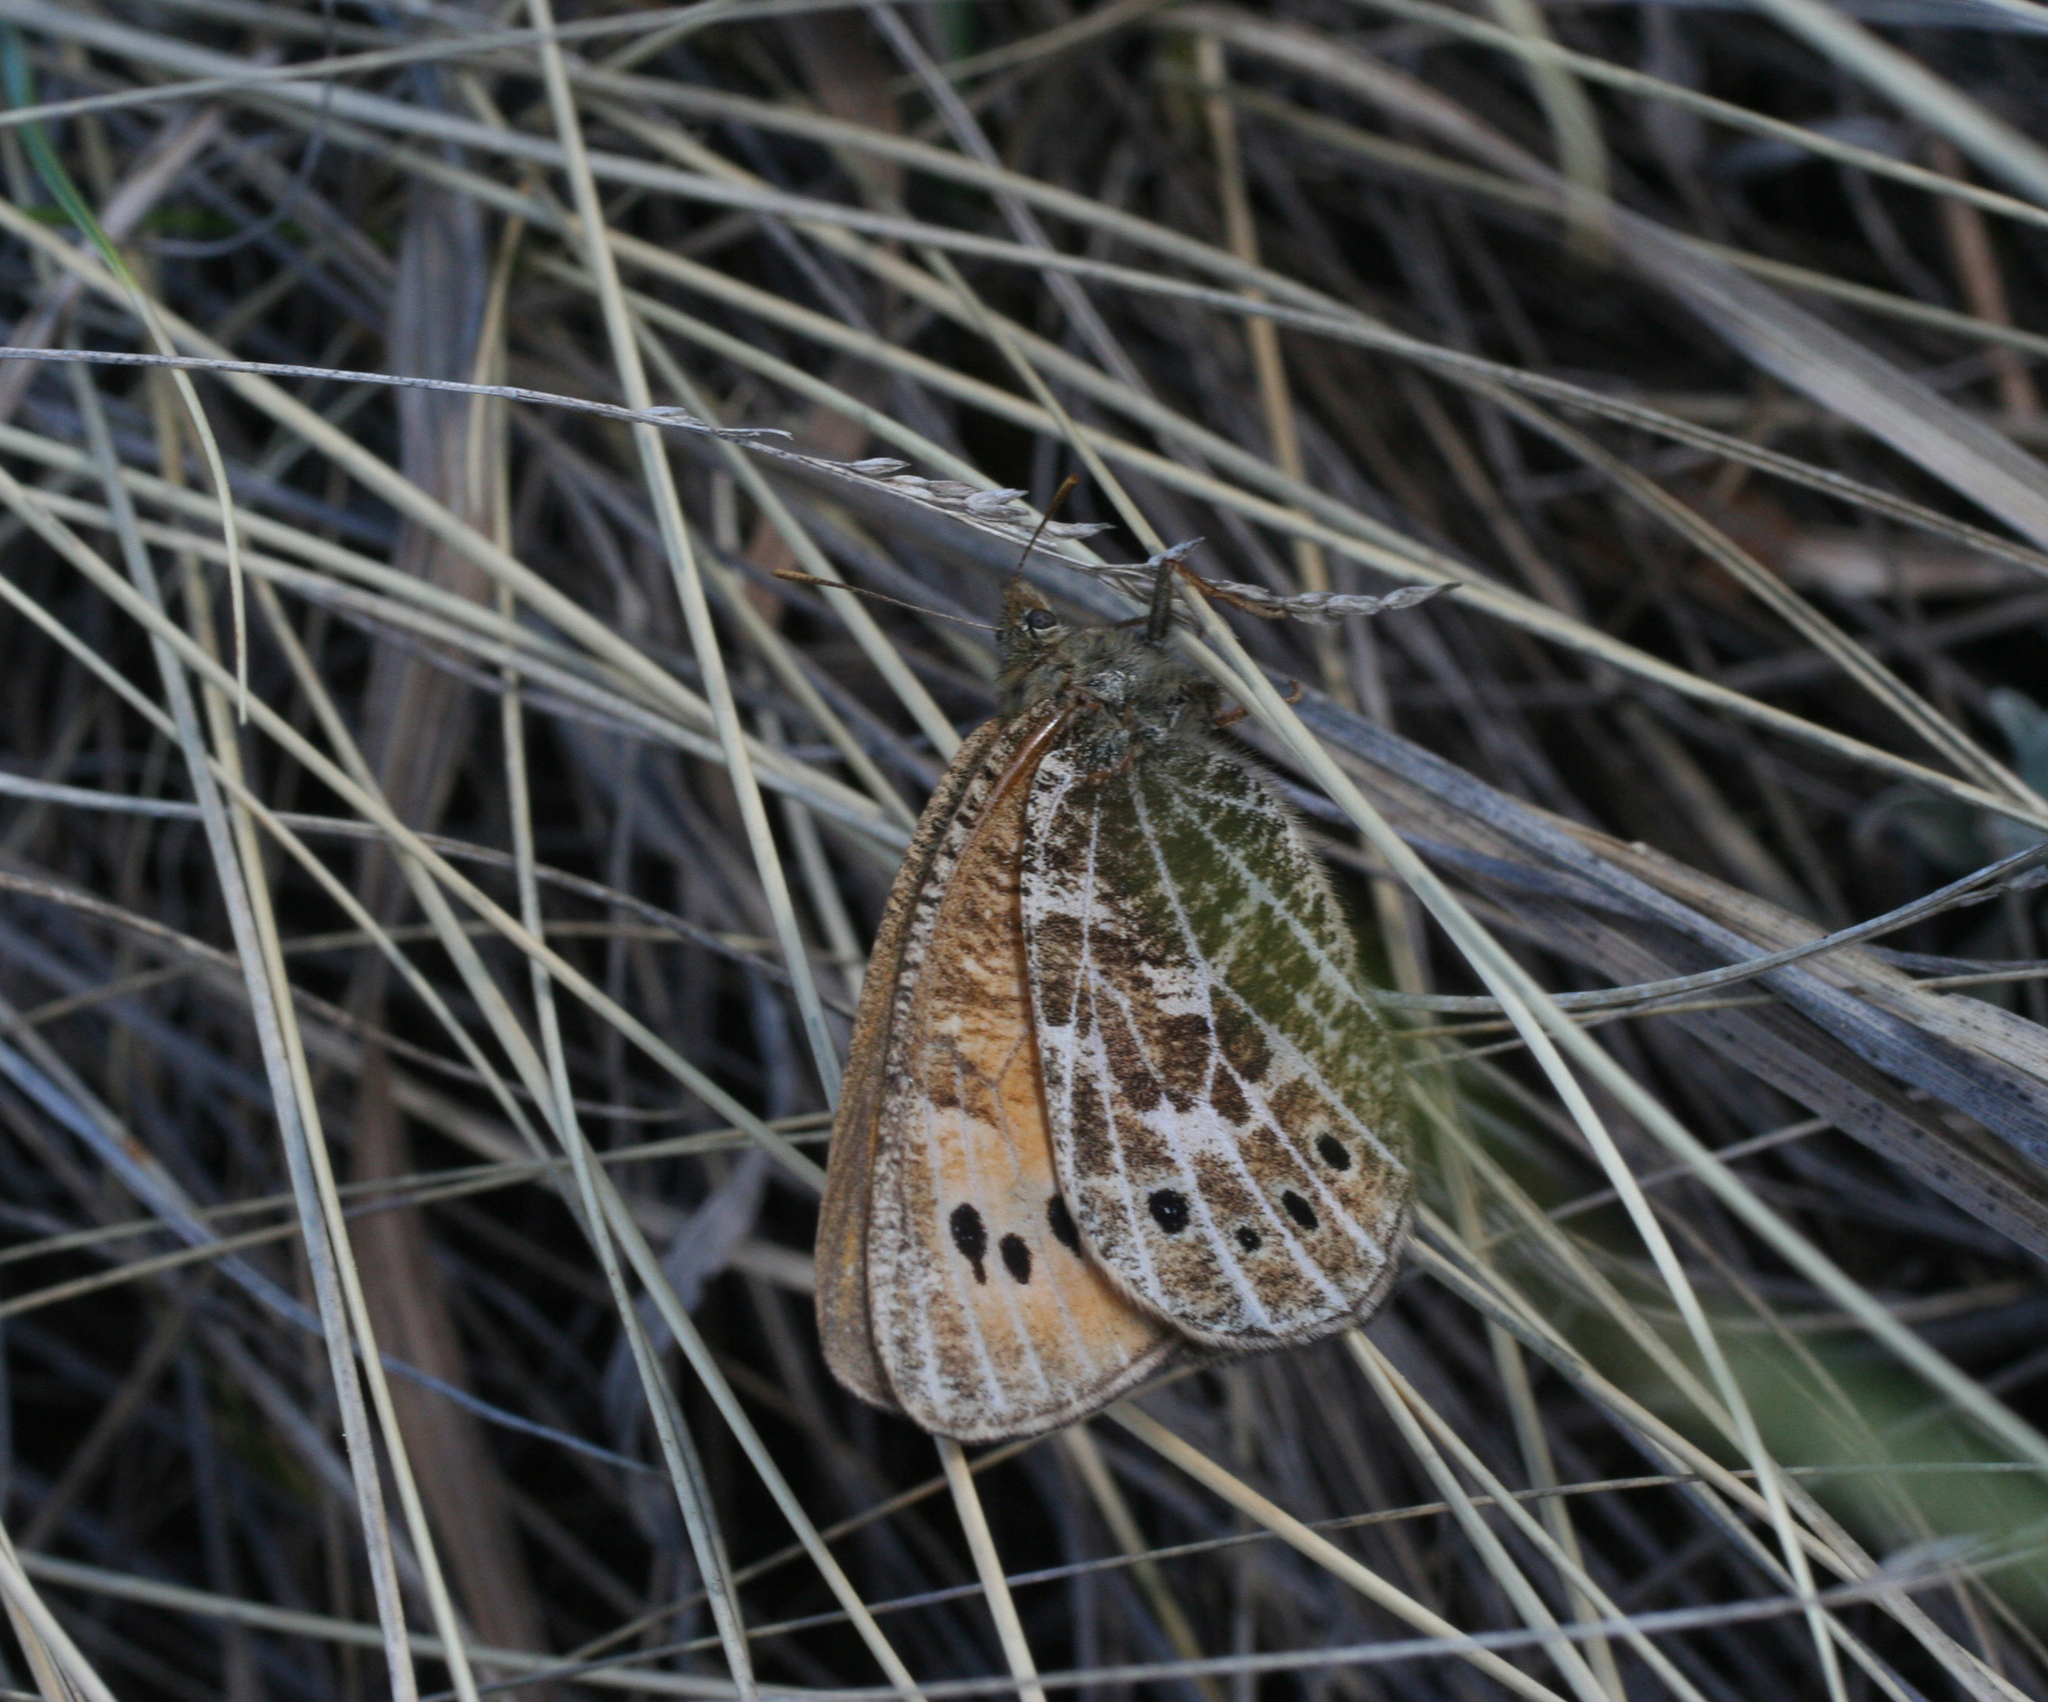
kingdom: Animalia
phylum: Arthropoda
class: Insecta
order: Lepidoptera
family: Nymphalidae
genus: Oeneis
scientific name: Oeneis tarpeia
